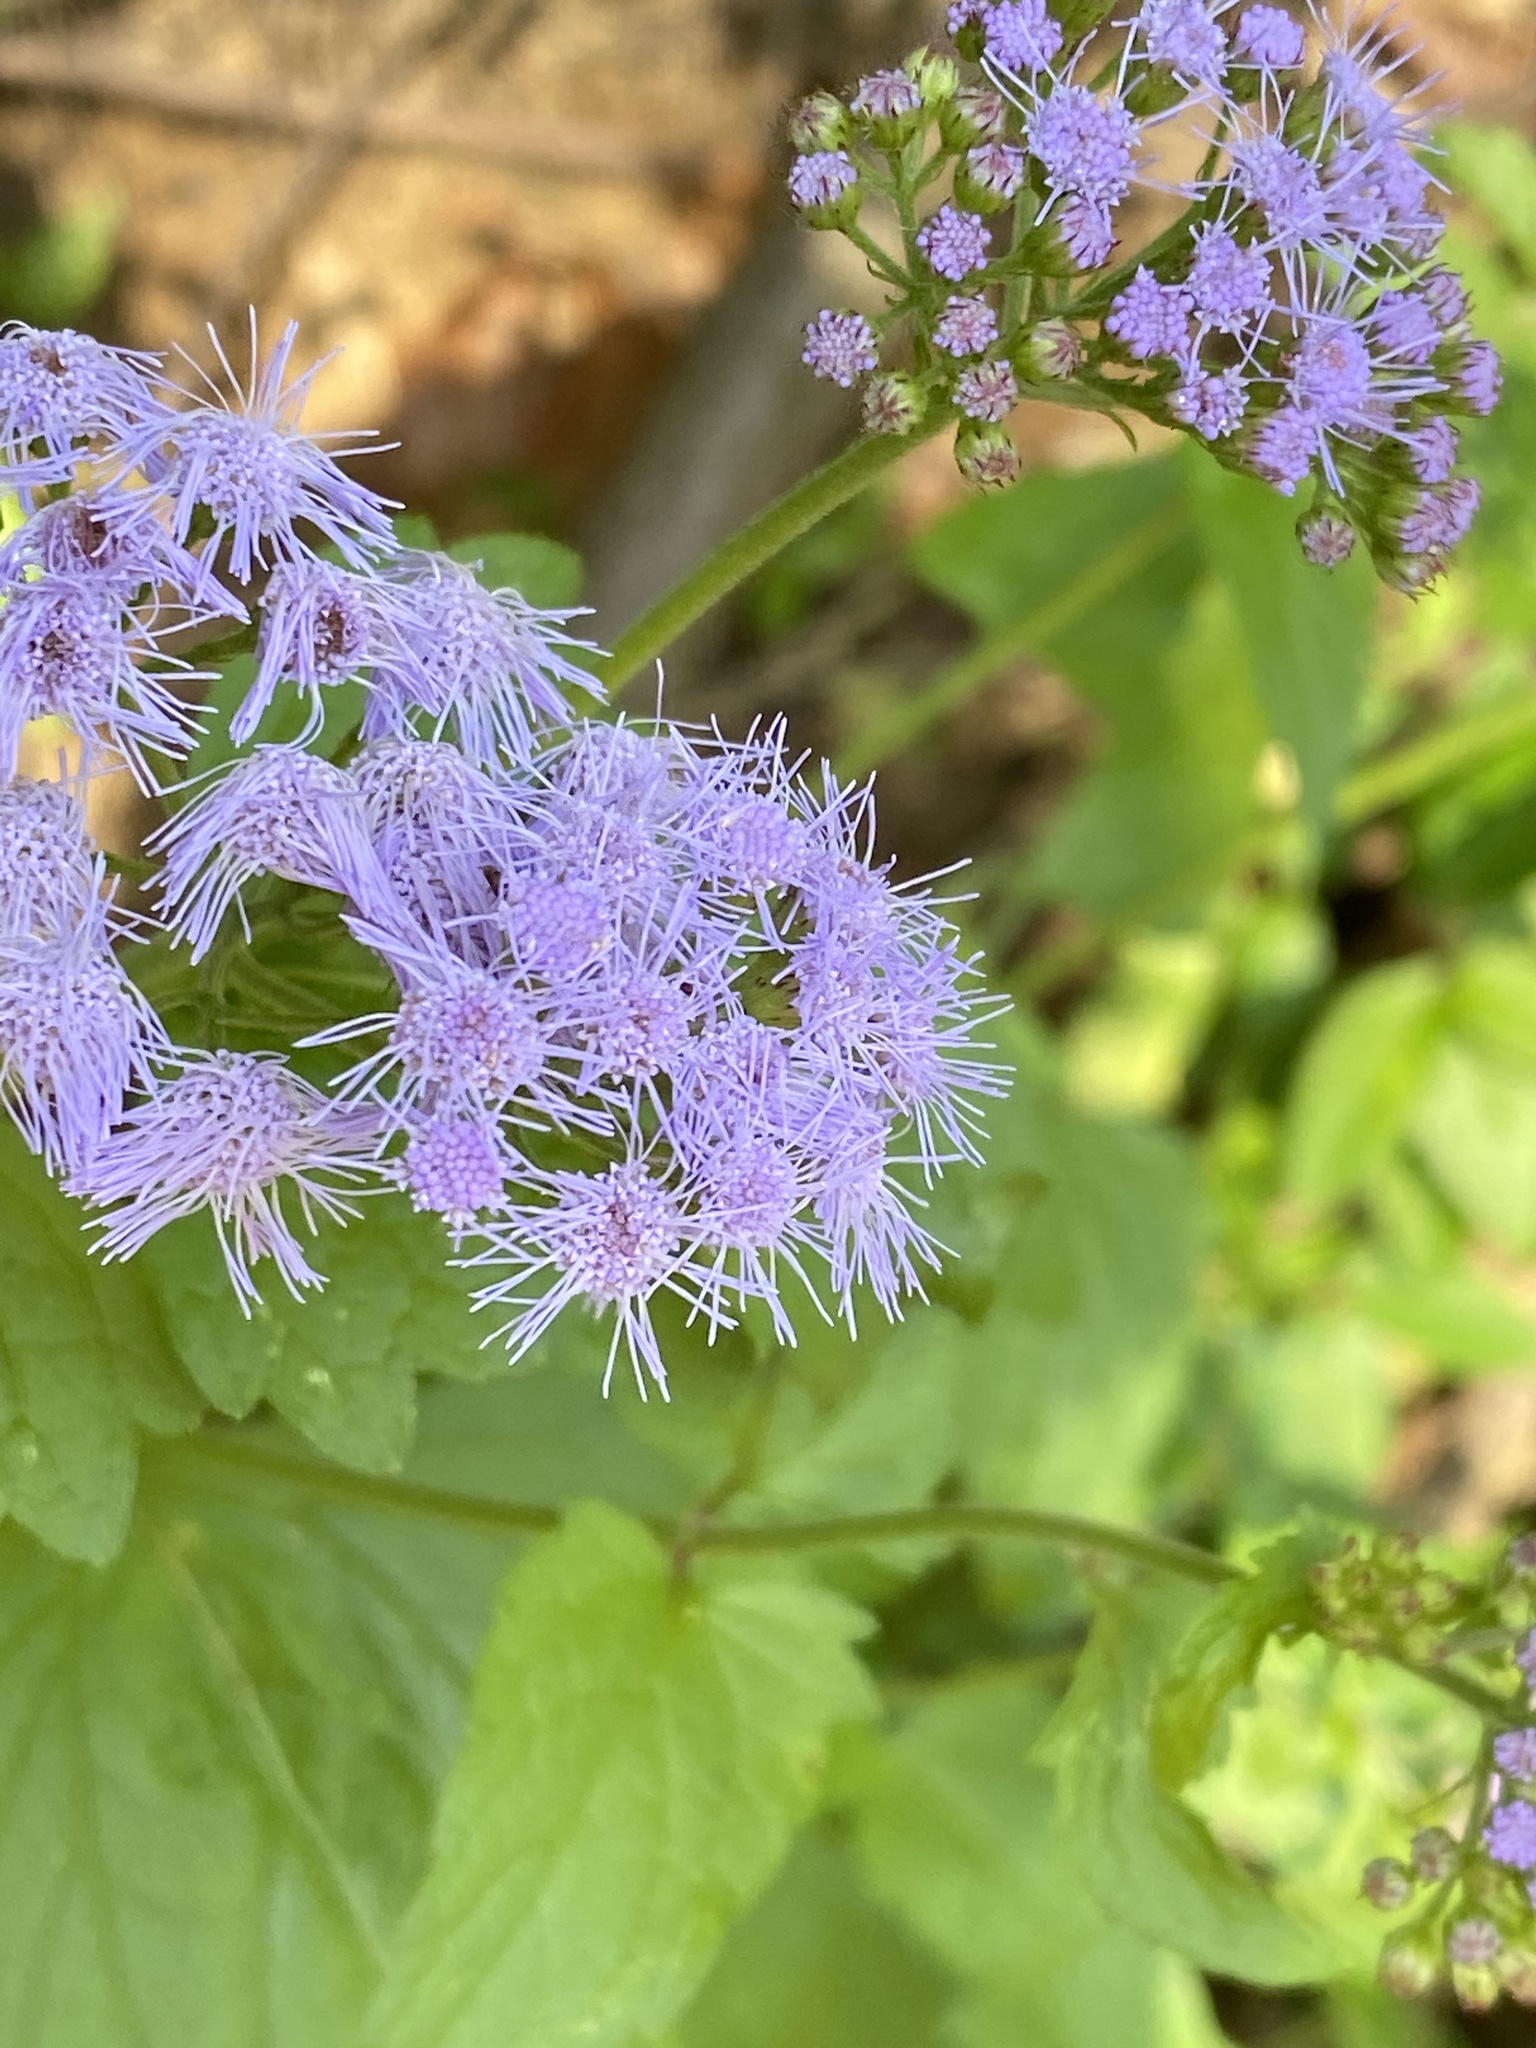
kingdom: Plantae
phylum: Tracheophyta
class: Magnoliopsida
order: Asterales
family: Asteraceae
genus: Conoclinium
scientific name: Conoclinium coelestinum
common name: Blue mistflower
